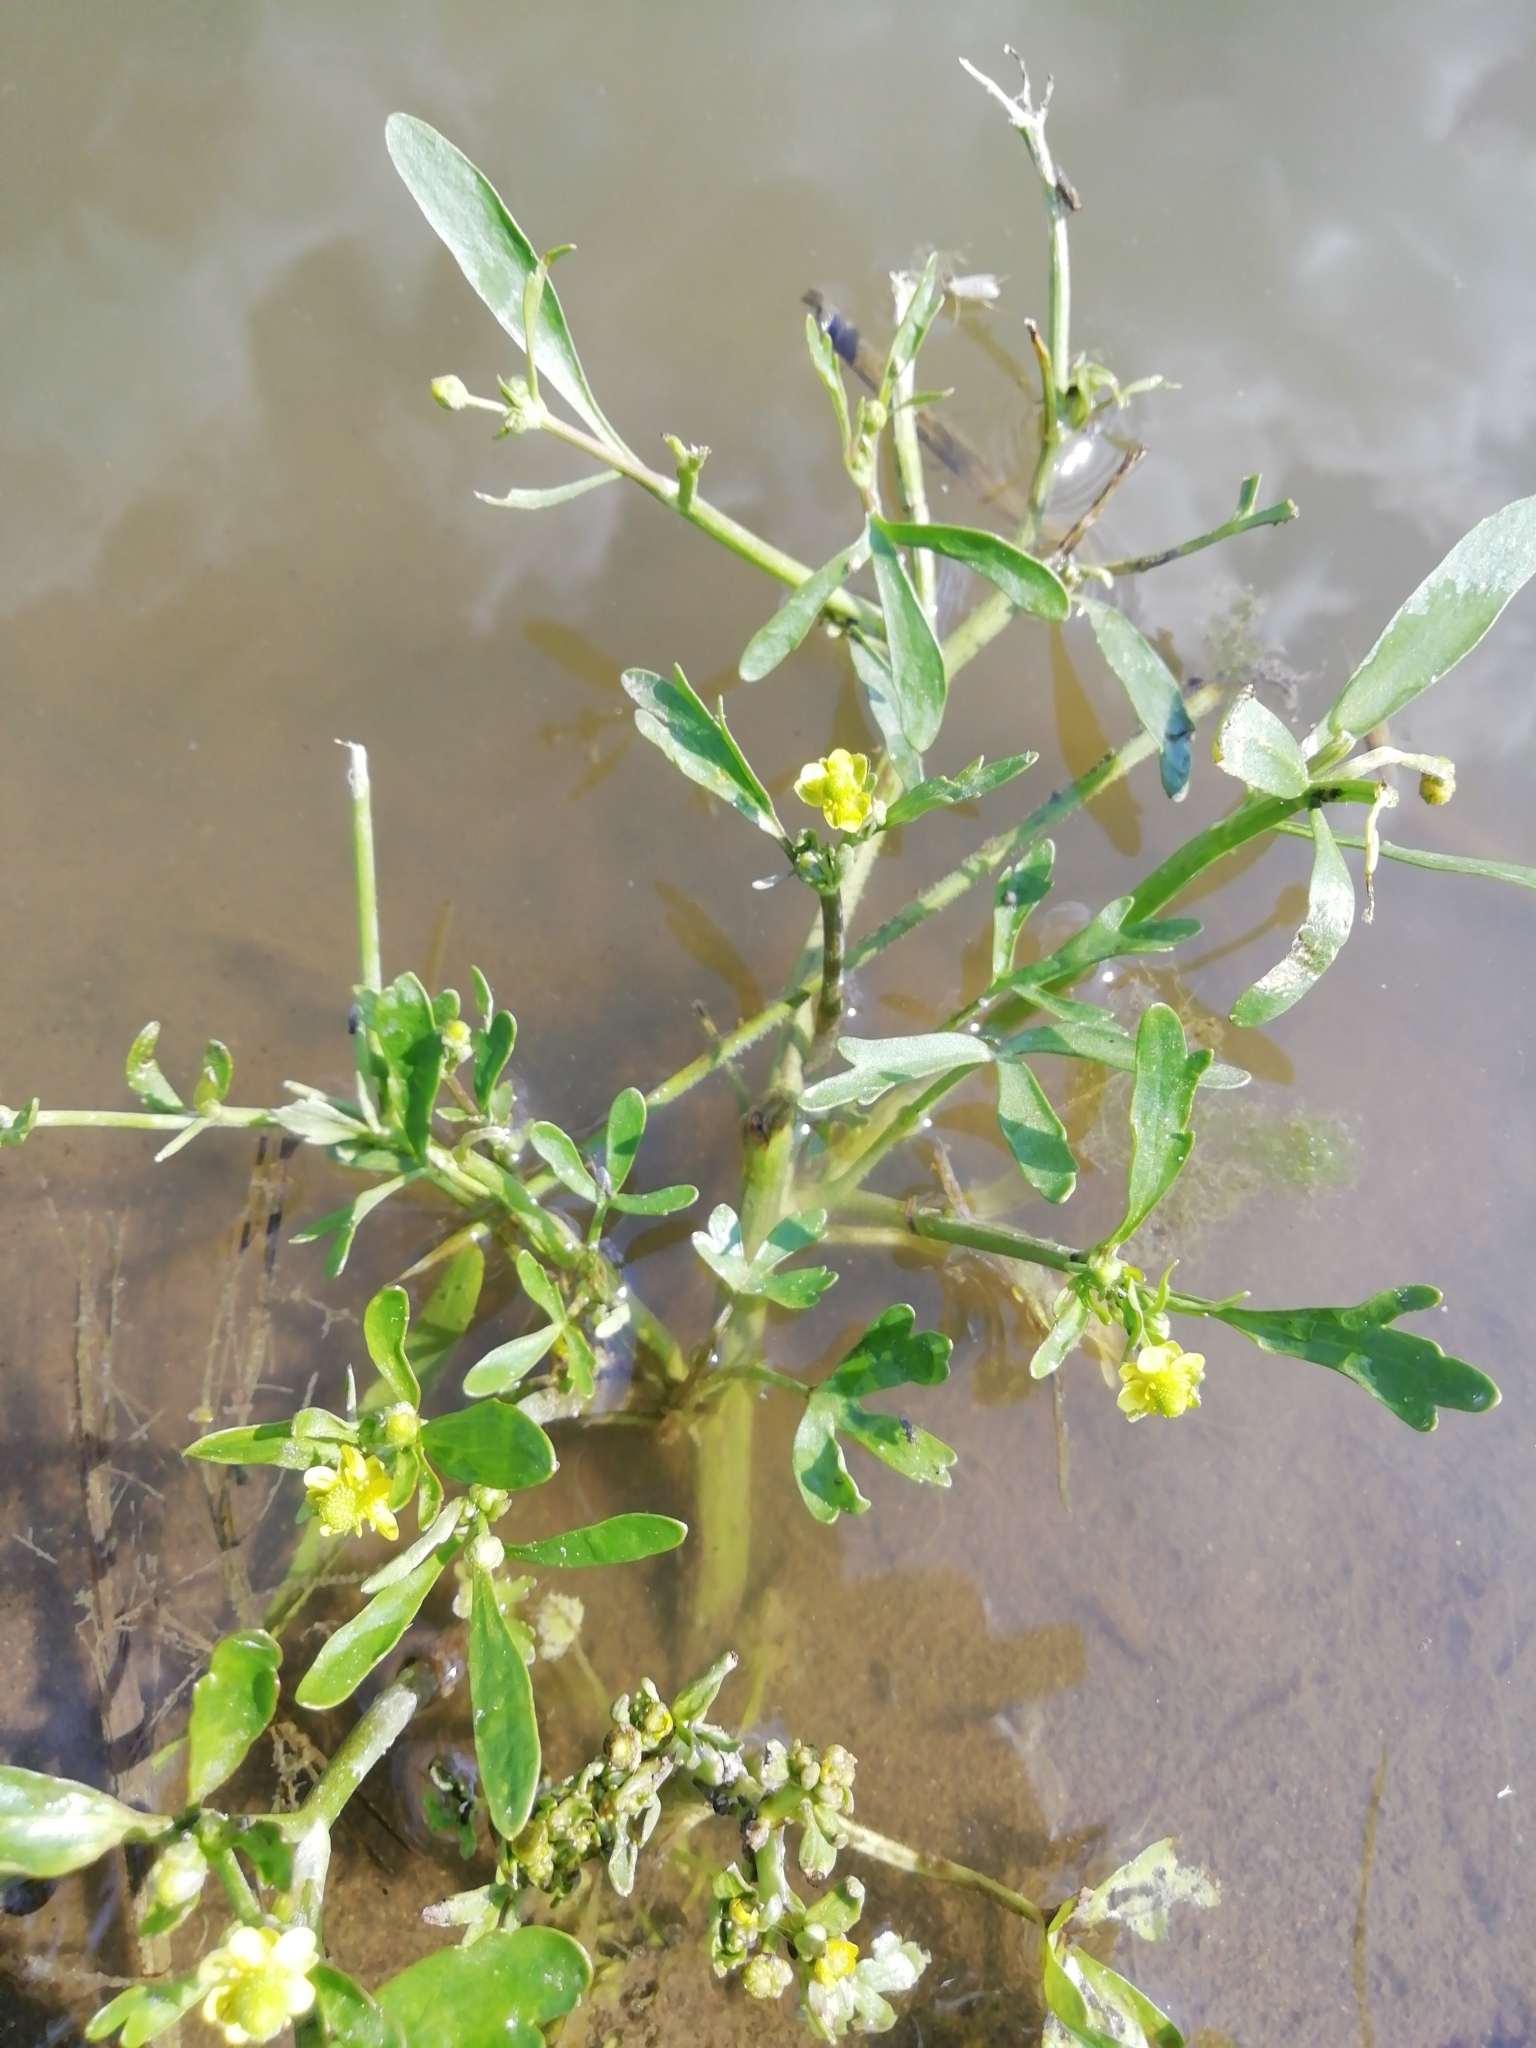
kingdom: Plantae
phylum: Tracheophyta
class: Magnoliopsida
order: Ranunculales
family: Ranunculaceae
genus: Ranunculus
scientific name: Ranunculus sceleratus
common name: Celery-leaved buttercup
